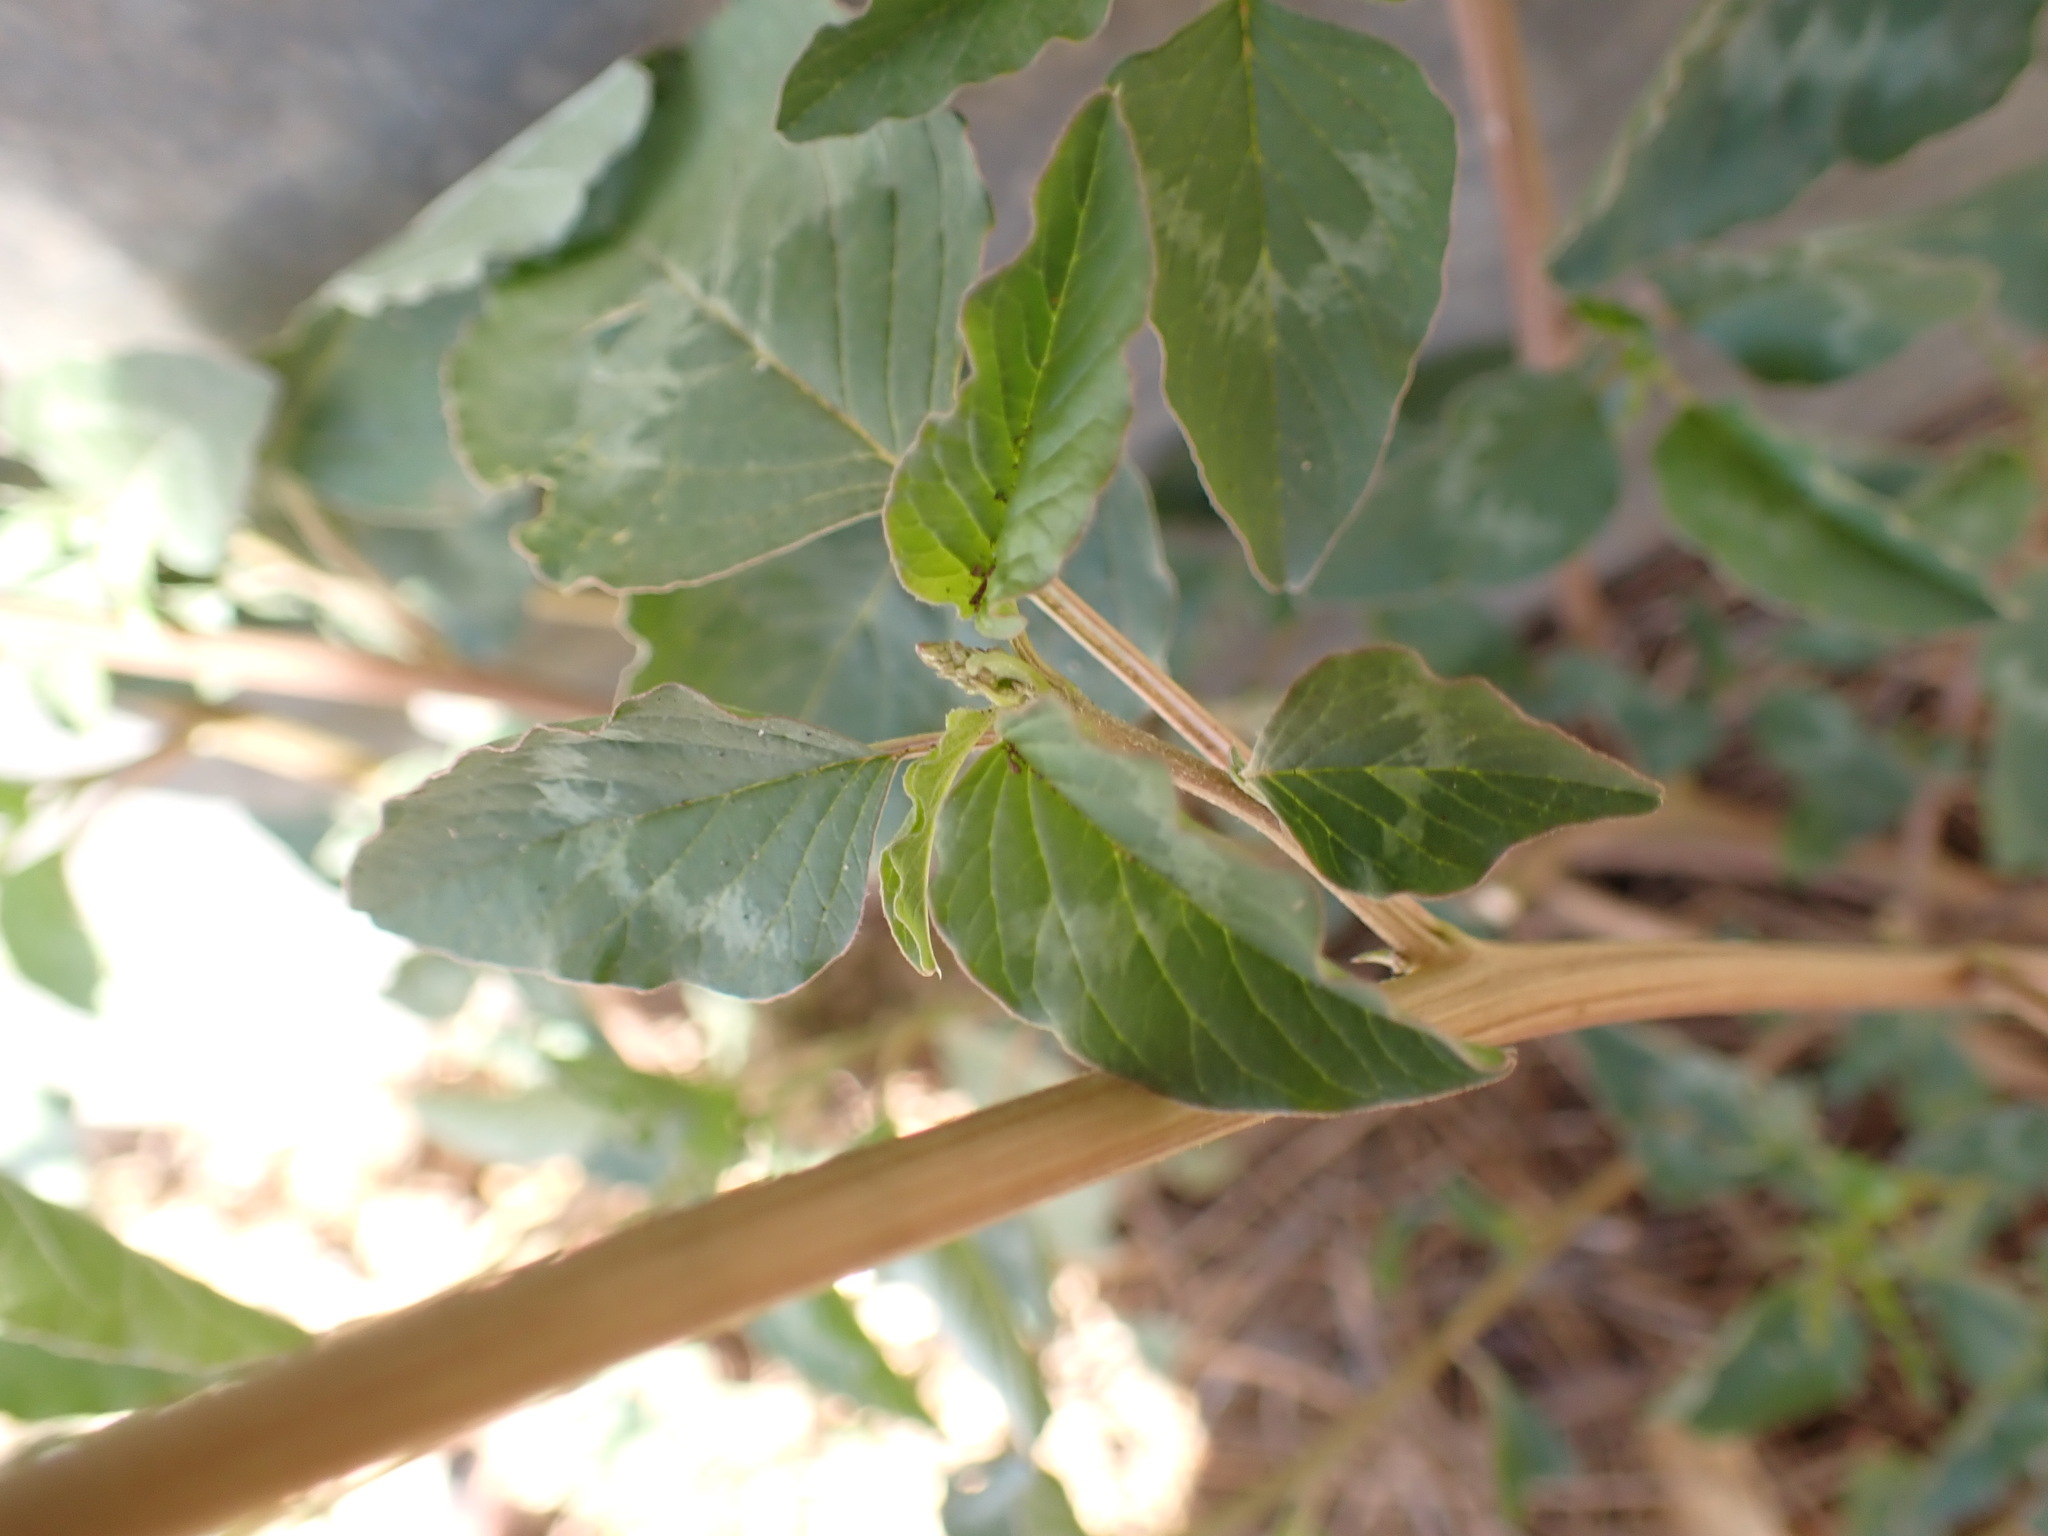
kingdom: Plantae
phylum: Tracheophyta
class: Magnoliopsida
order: Caryophyllales
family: Amaranthaceae
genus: Amaranthus
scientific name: Amaranthus viridis
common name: Slender amaranth
